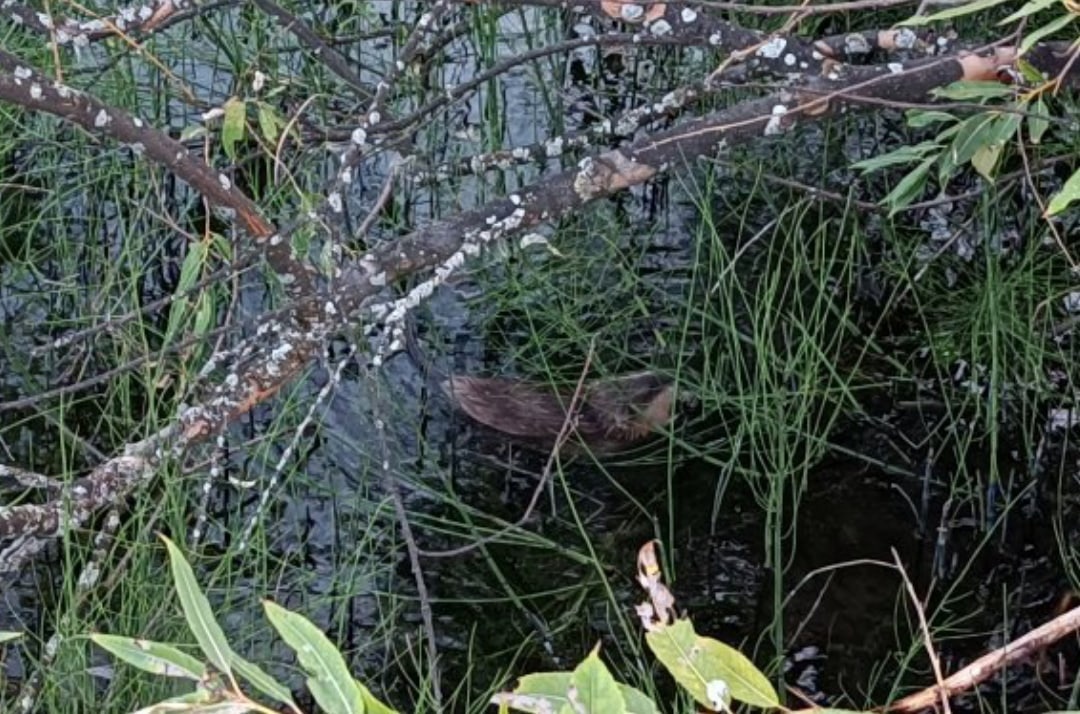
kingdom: Animalia
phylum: Chordata
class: Mammalia
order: Rodentia
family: Cricetidae
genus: Ondatra
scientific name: Ondatra zibethicus
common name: Muskrat
